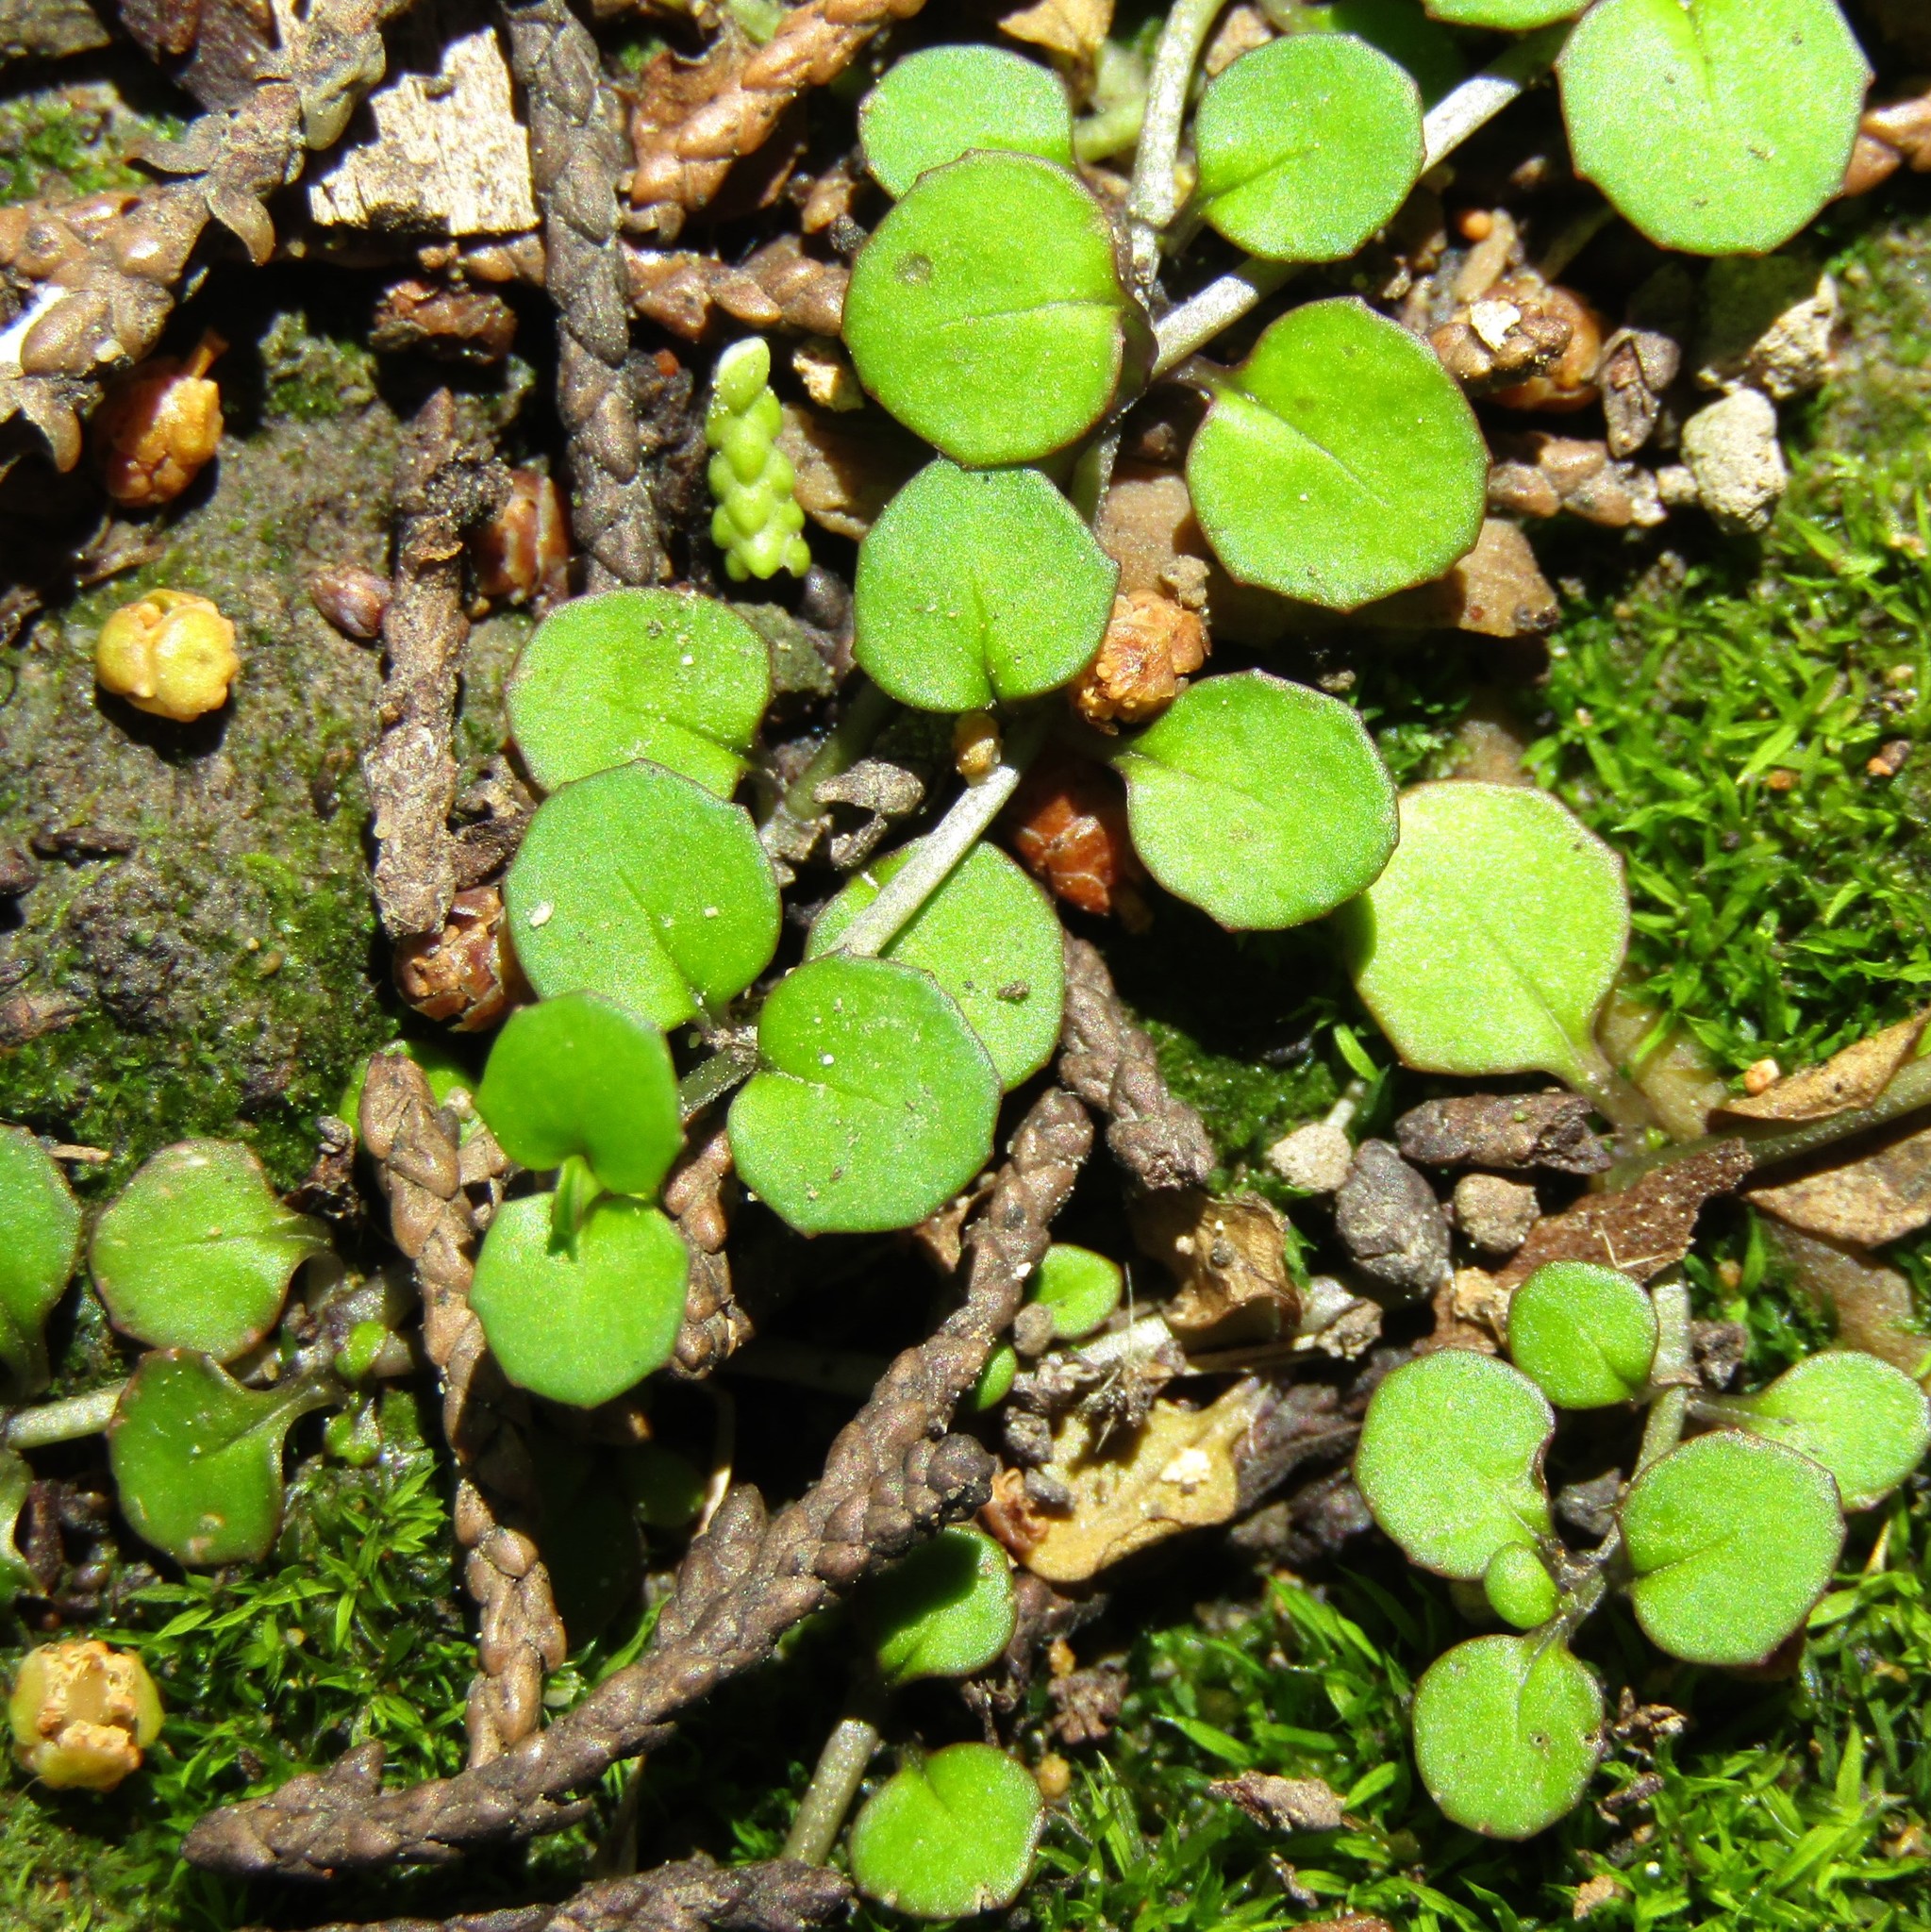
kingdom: Plantae
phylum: Tracheophyta
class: Magnoliopsida
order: Myrtales
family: Onagraceae
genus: Epilobium
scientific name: Epilobium nummularifolium
